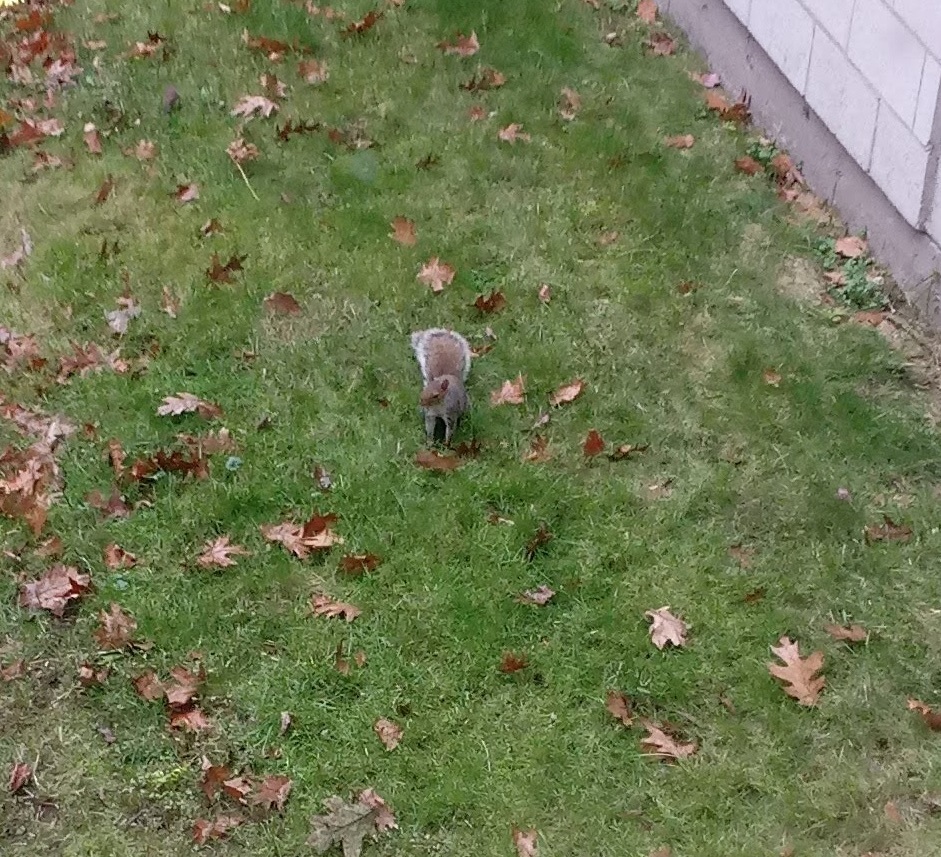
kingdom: Animalia
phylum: Chordata
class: Mammalia
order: Rodentia
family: Sciuridae
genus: Sciurus
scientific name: Sciurus carolinensis
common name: Eastern gray squirrel
